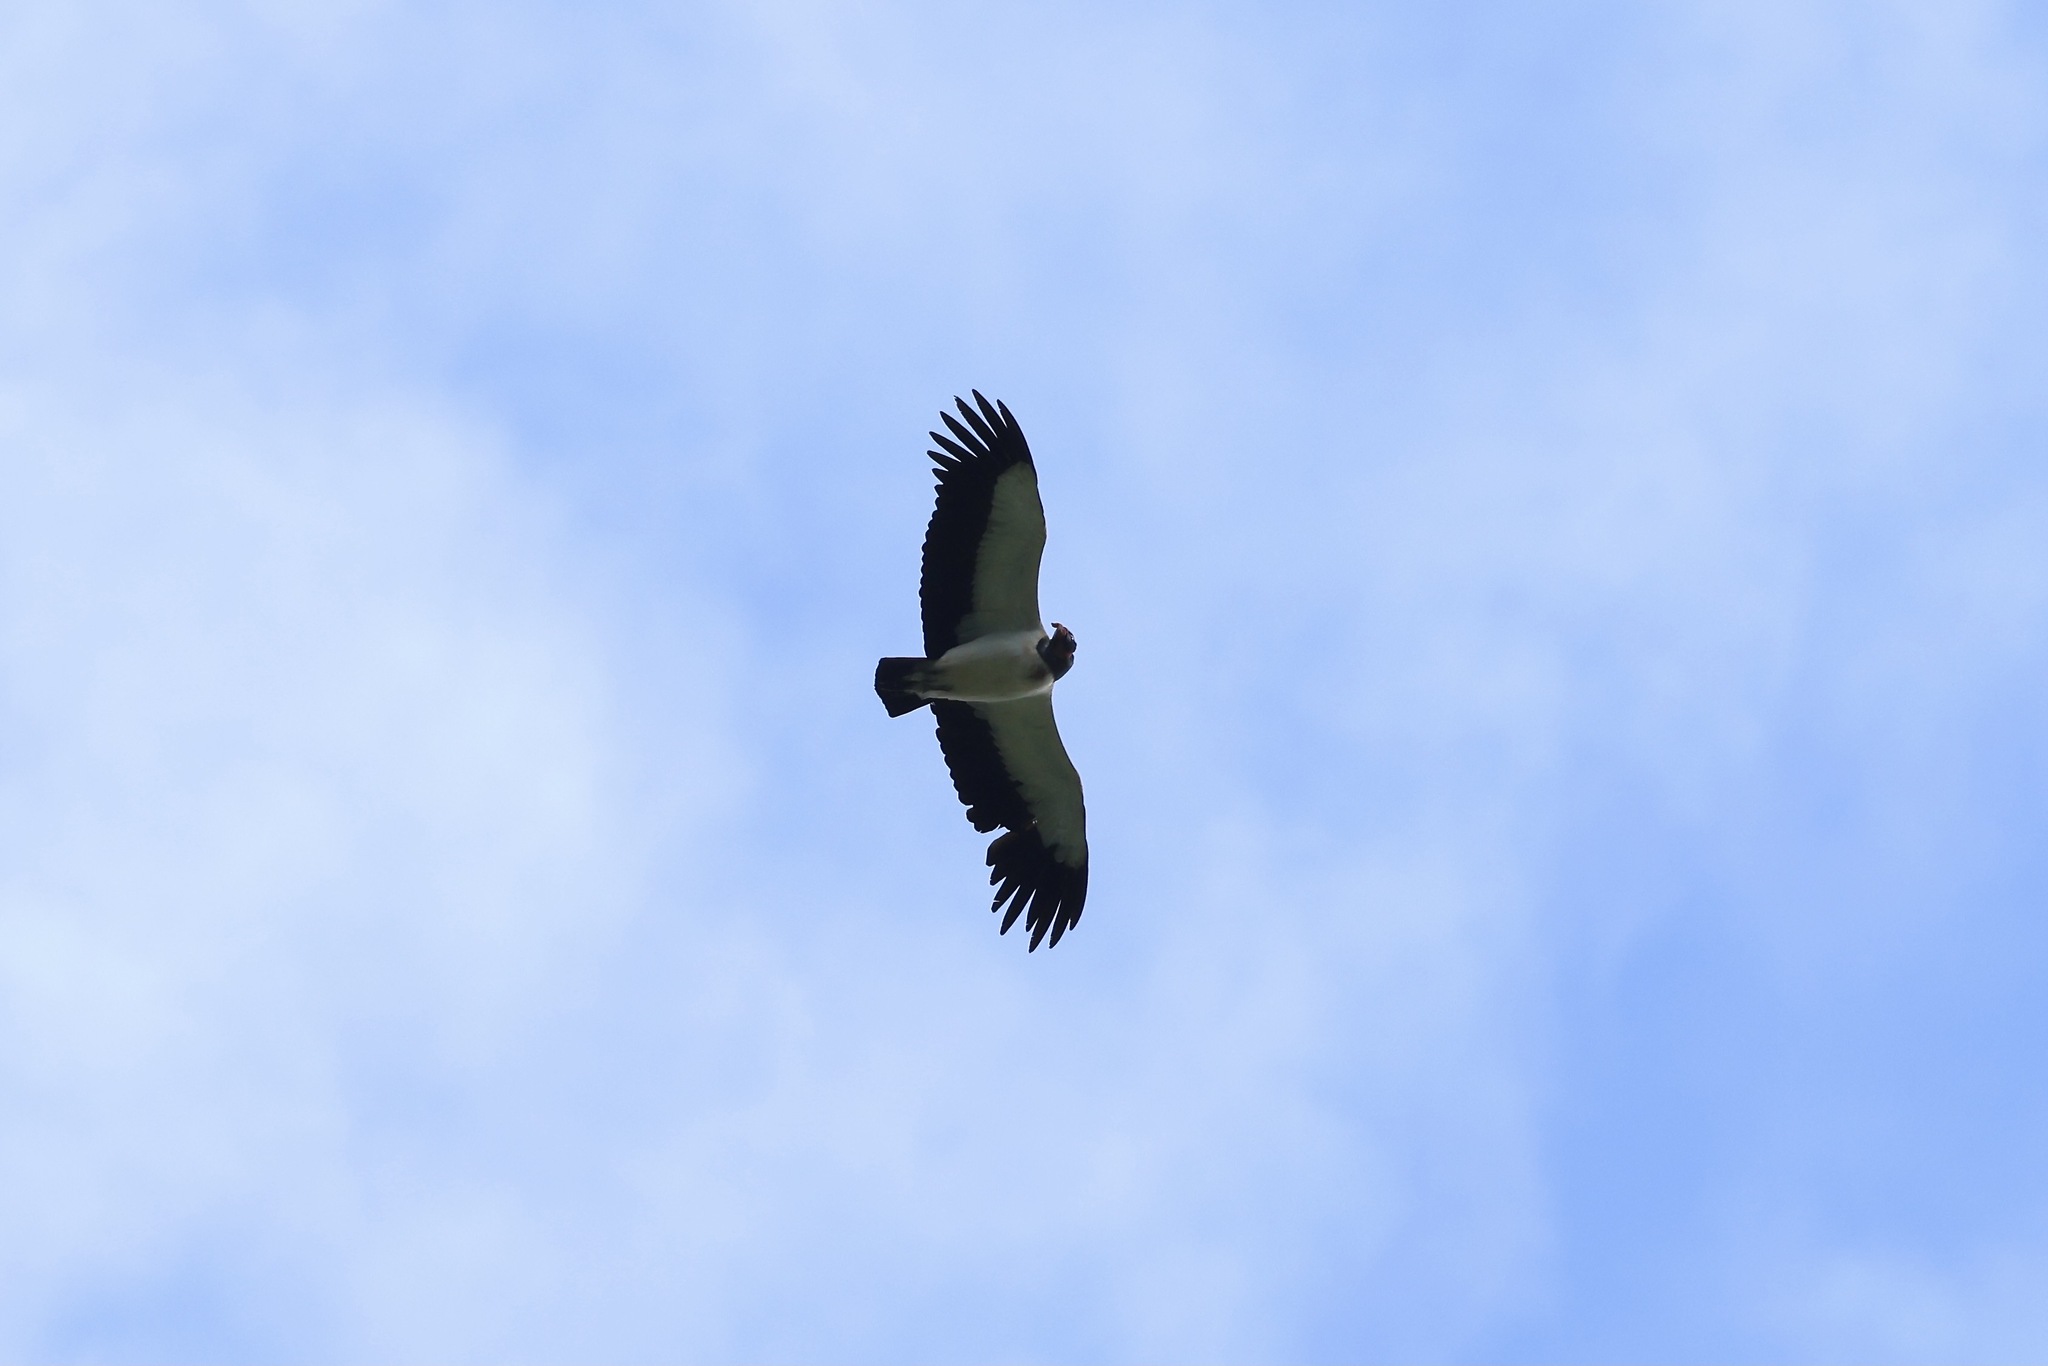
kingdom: Animalia
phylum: Chordata
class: Aves
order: Accipitriformes
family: Cathartidae
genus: Sarcoramphus
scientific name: Sarcoramphus papa
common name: King vulture
